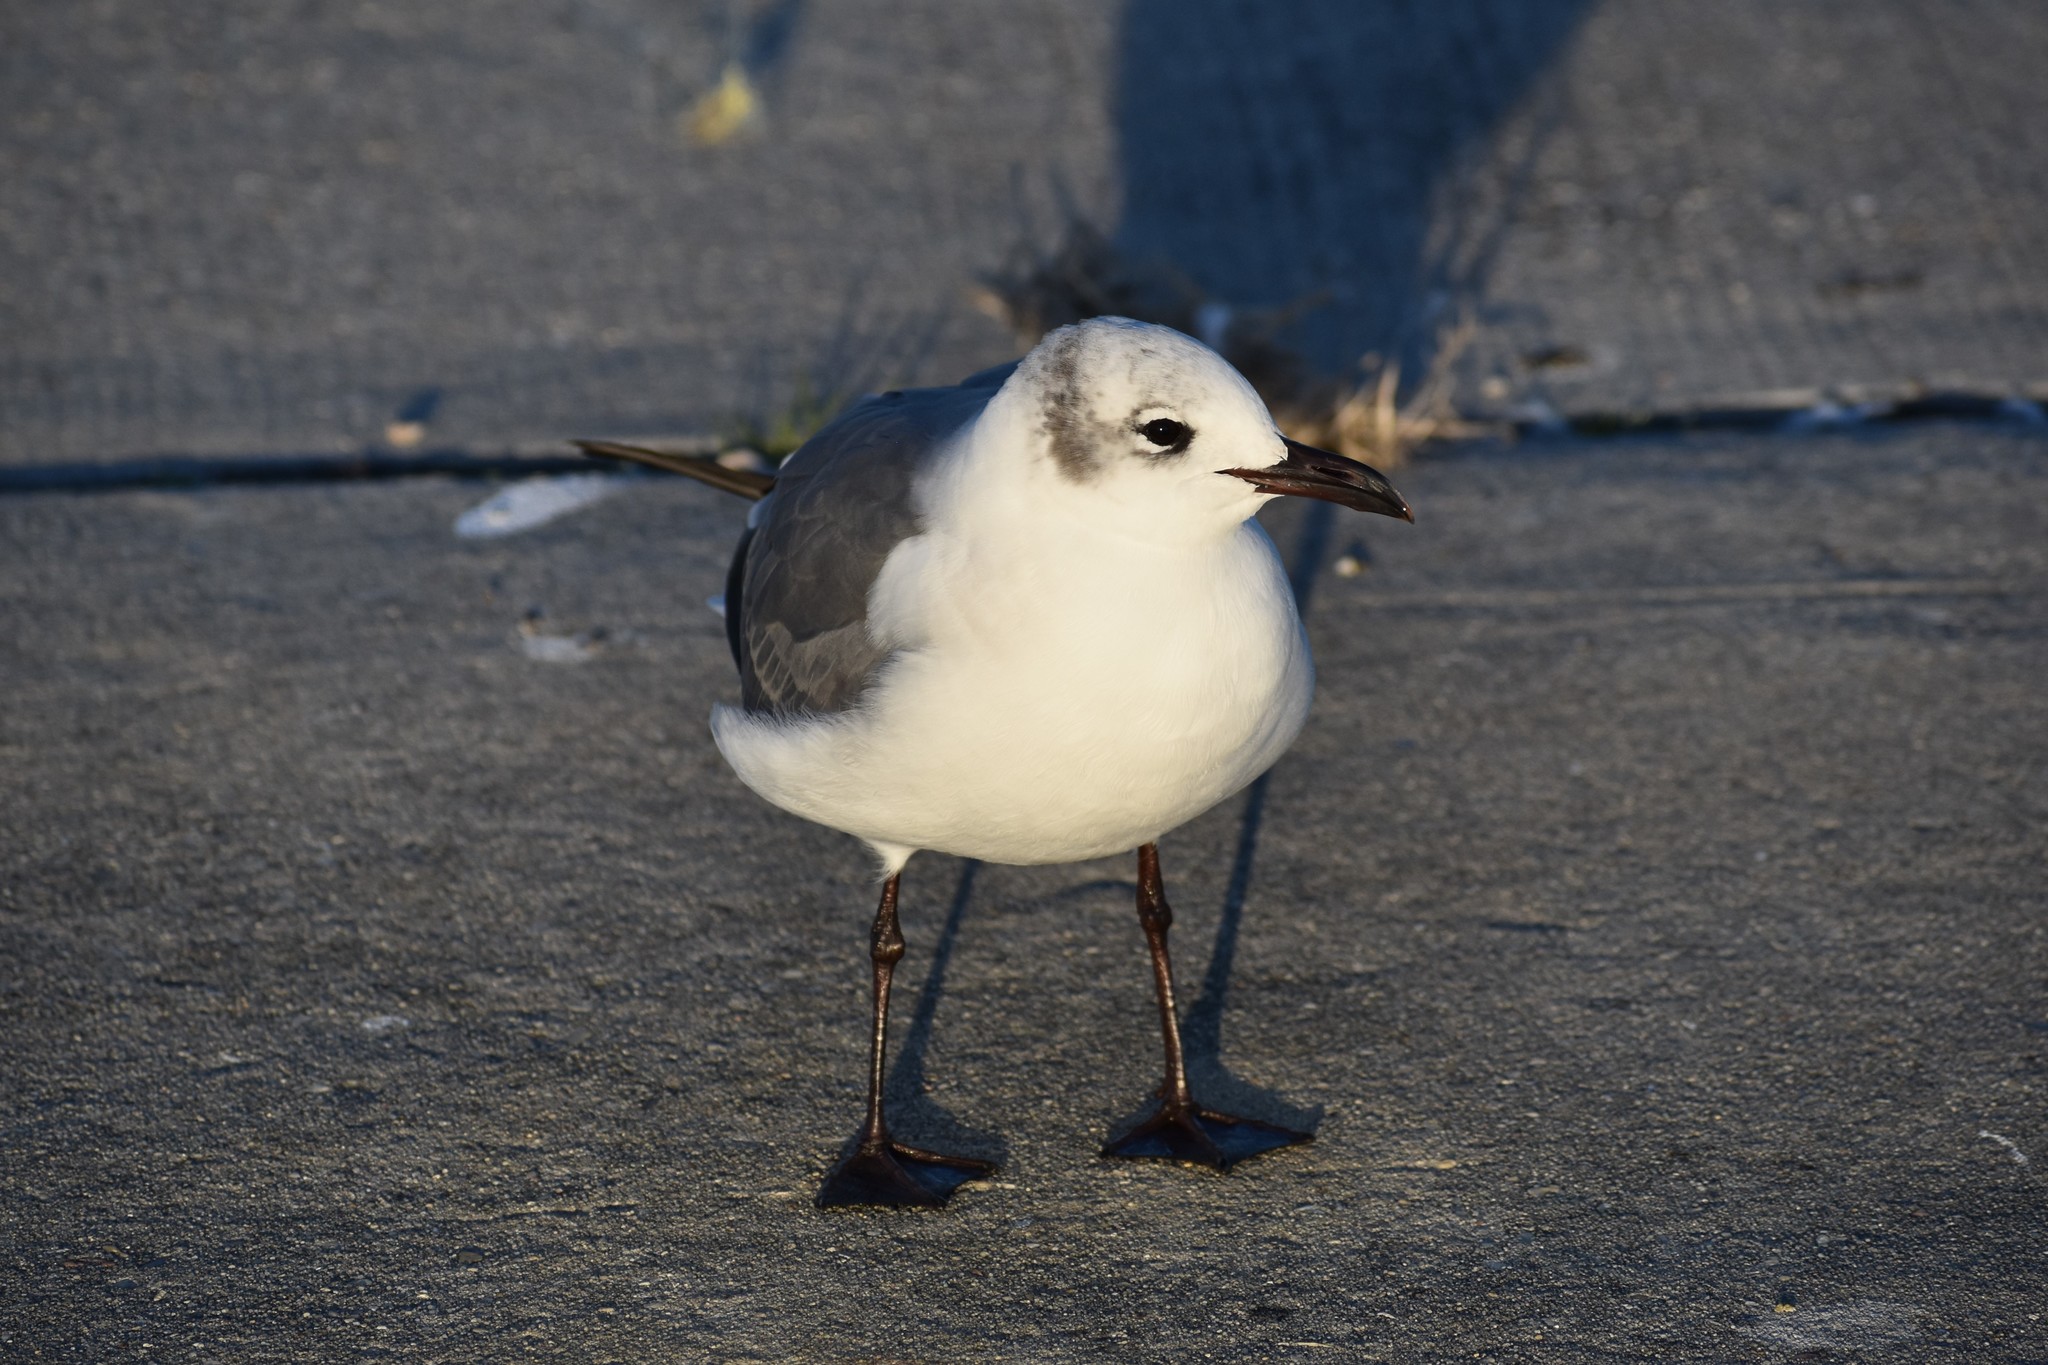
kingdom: Animalia
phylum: Chordata
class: Aves
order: Charadriiformes
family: Laridae
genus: Leucophaeus
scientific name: Leucophaeus atricilla
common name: Laughing gull
